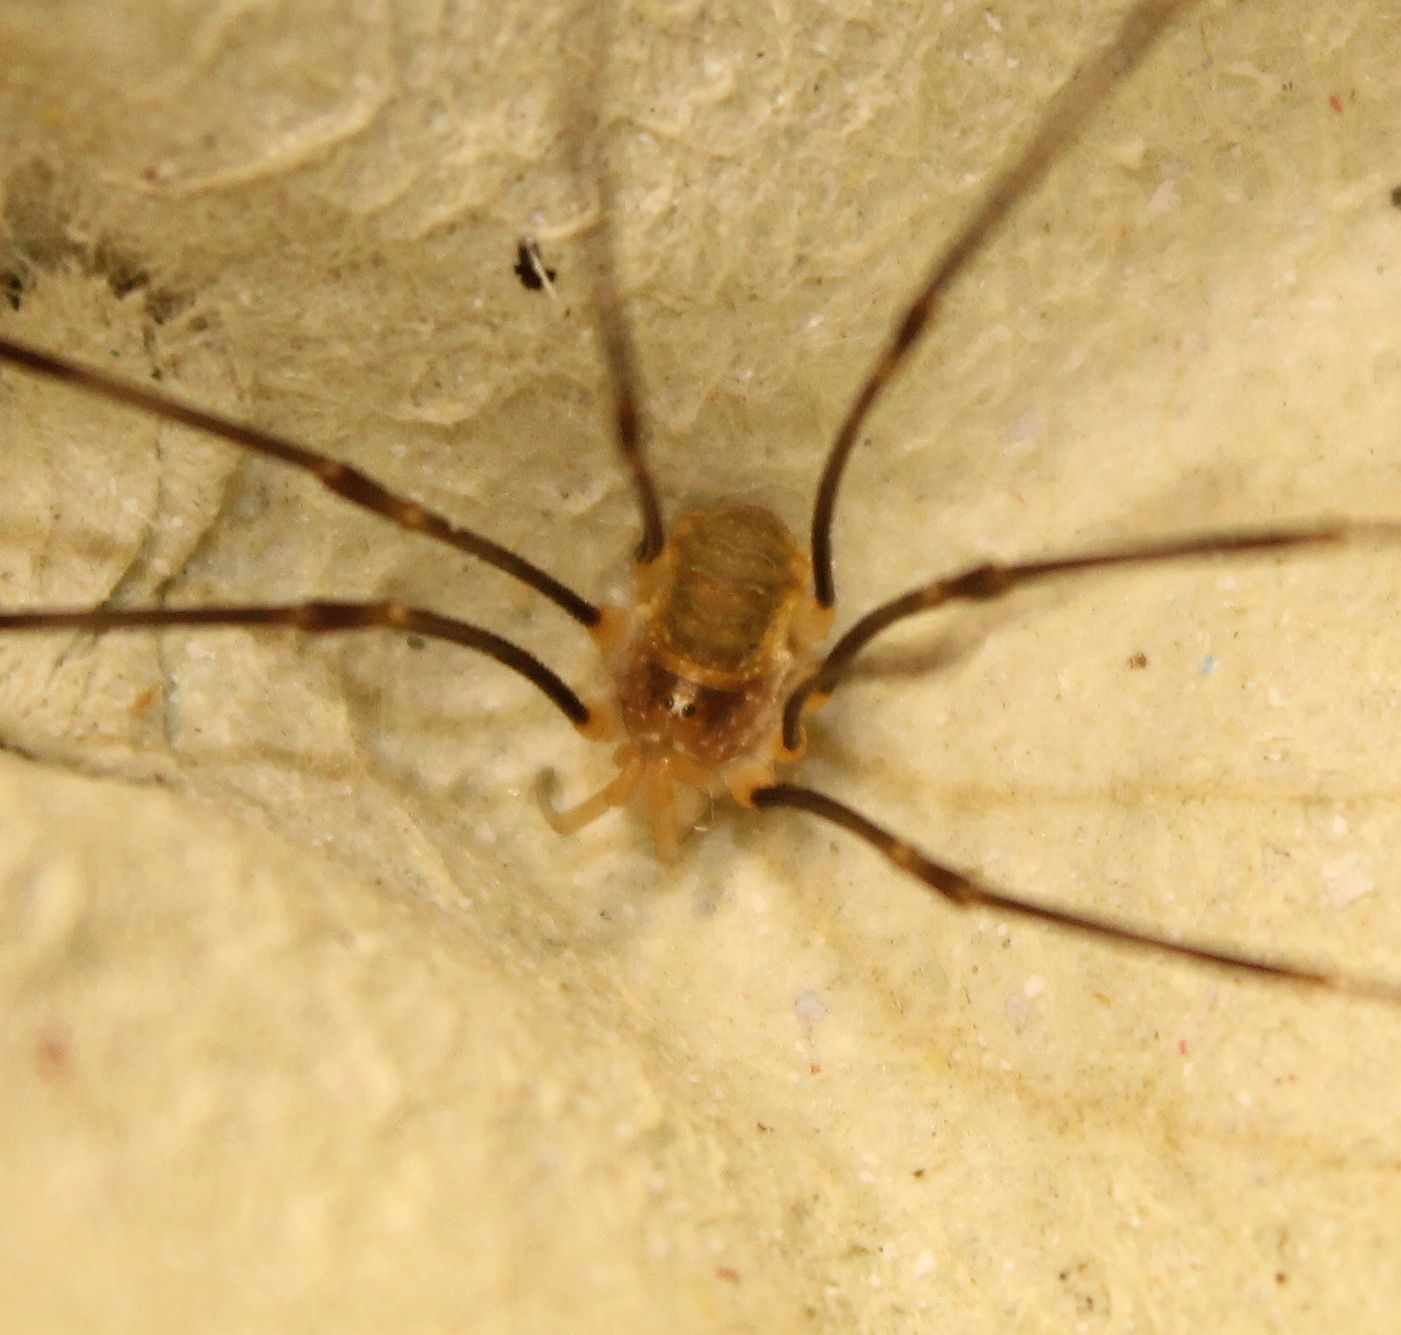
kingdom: Animalia
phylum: Arthropoda
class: Arachnida
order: Opiliones
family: Phalangiidae
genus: Opilio
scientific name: Opilio canestrinii
